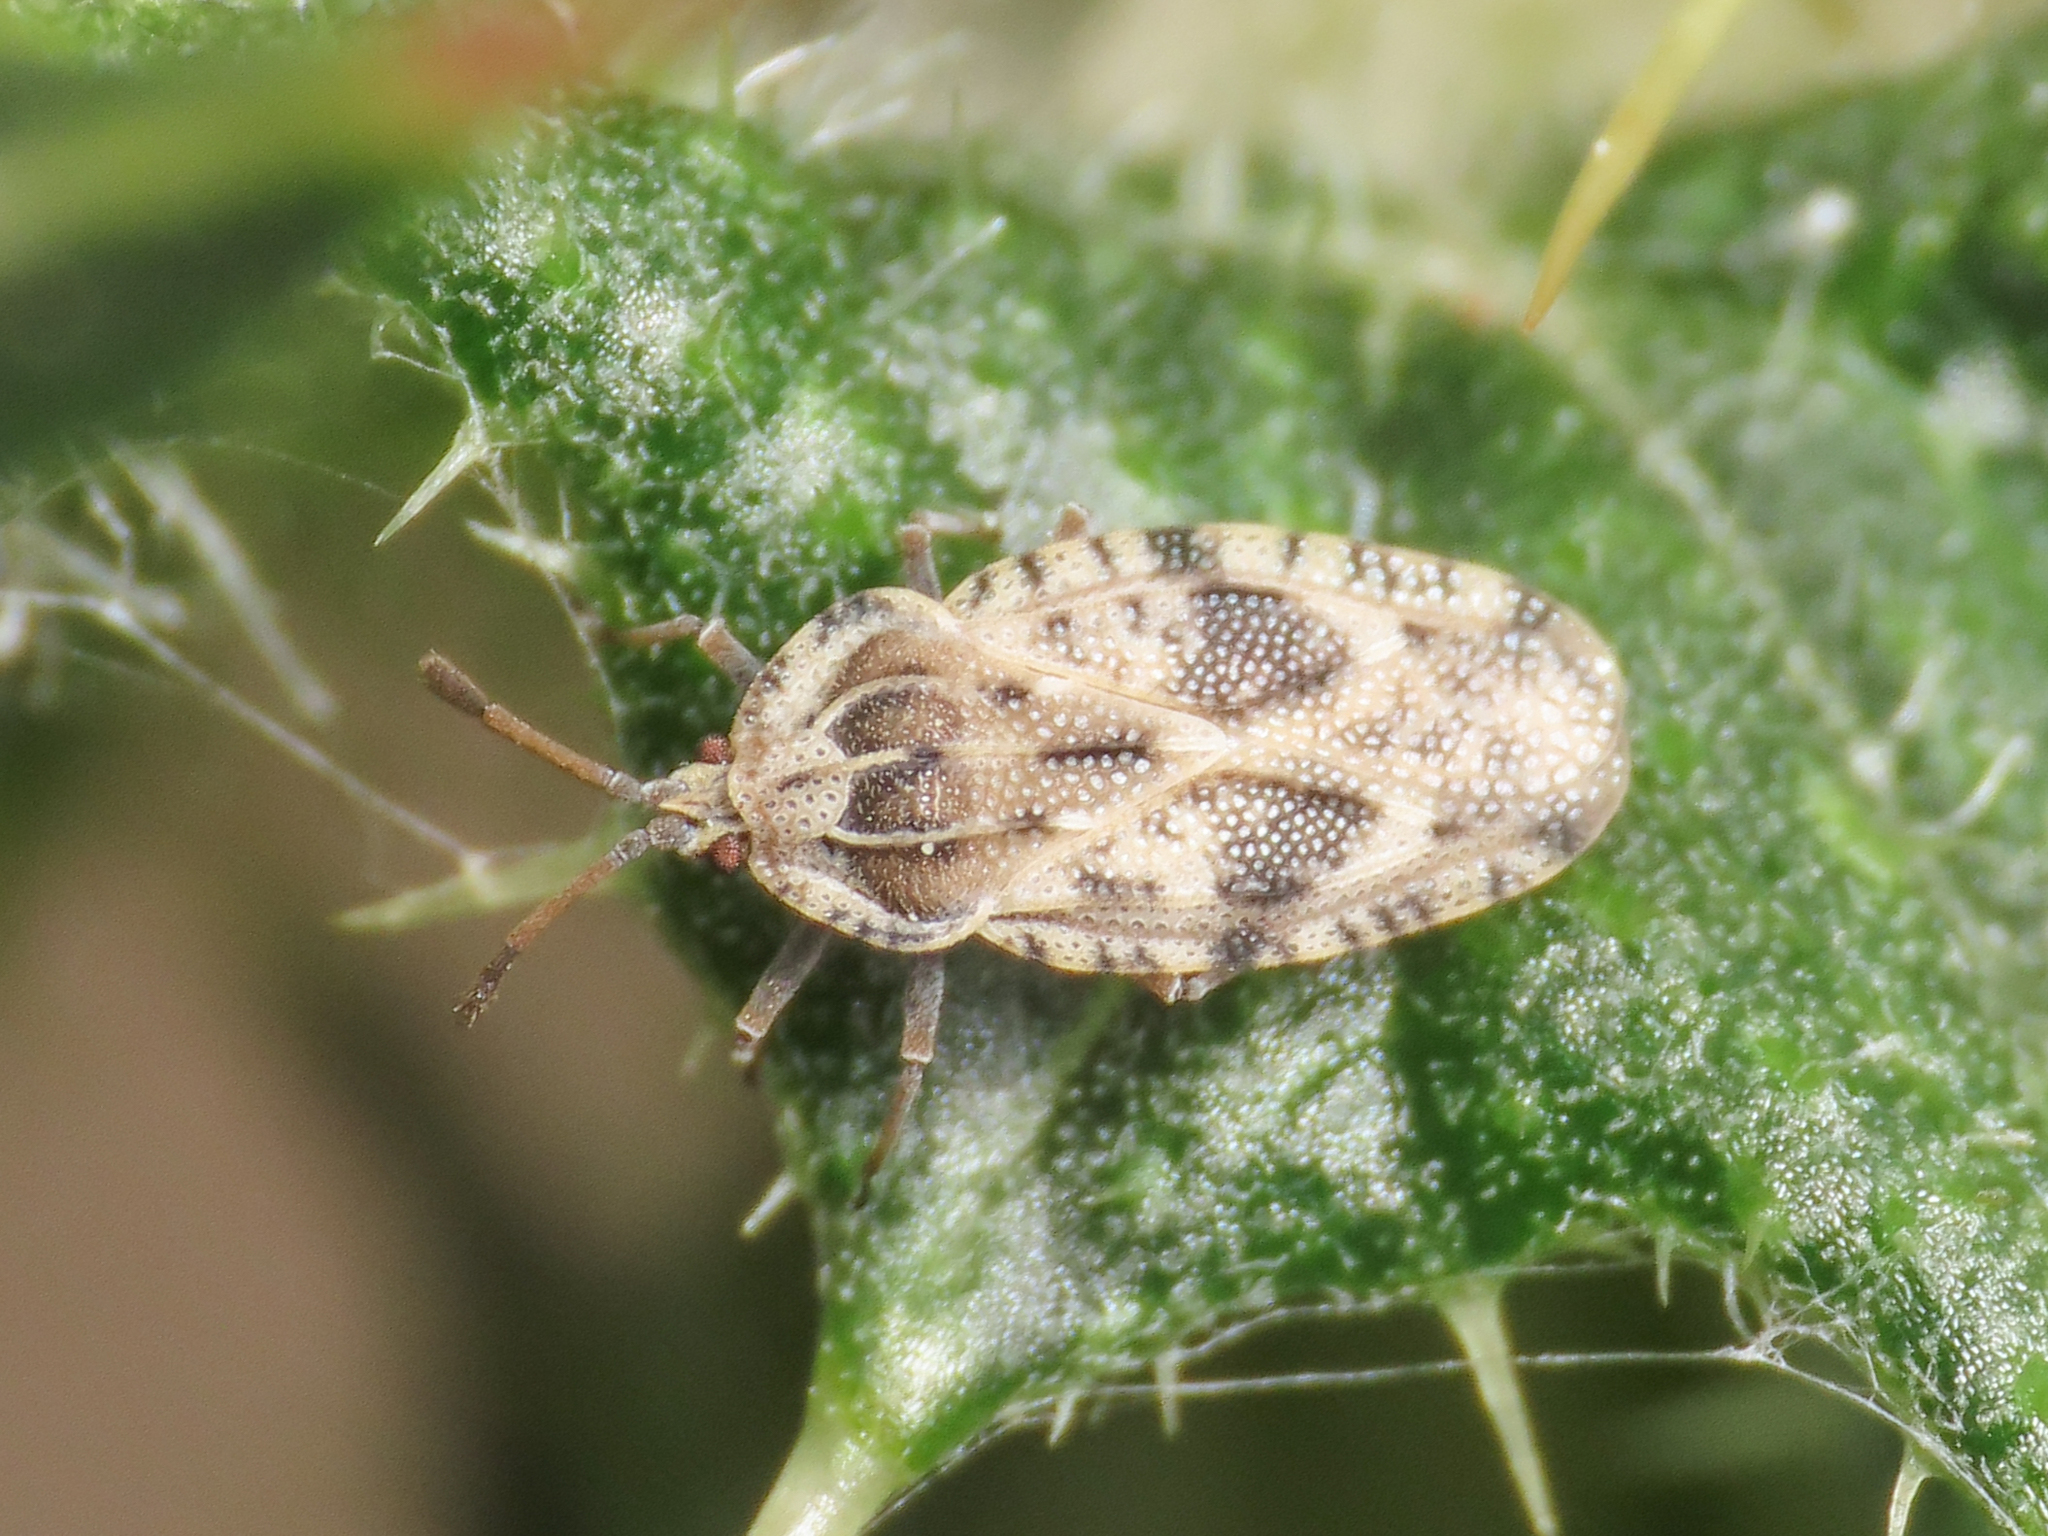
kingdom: Animalia
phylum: Arthropoda
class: Insecta
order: Hemiptera
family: Tingidae
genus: Tingis
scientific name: Tingis cardui
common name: Spear thistle lacebug
